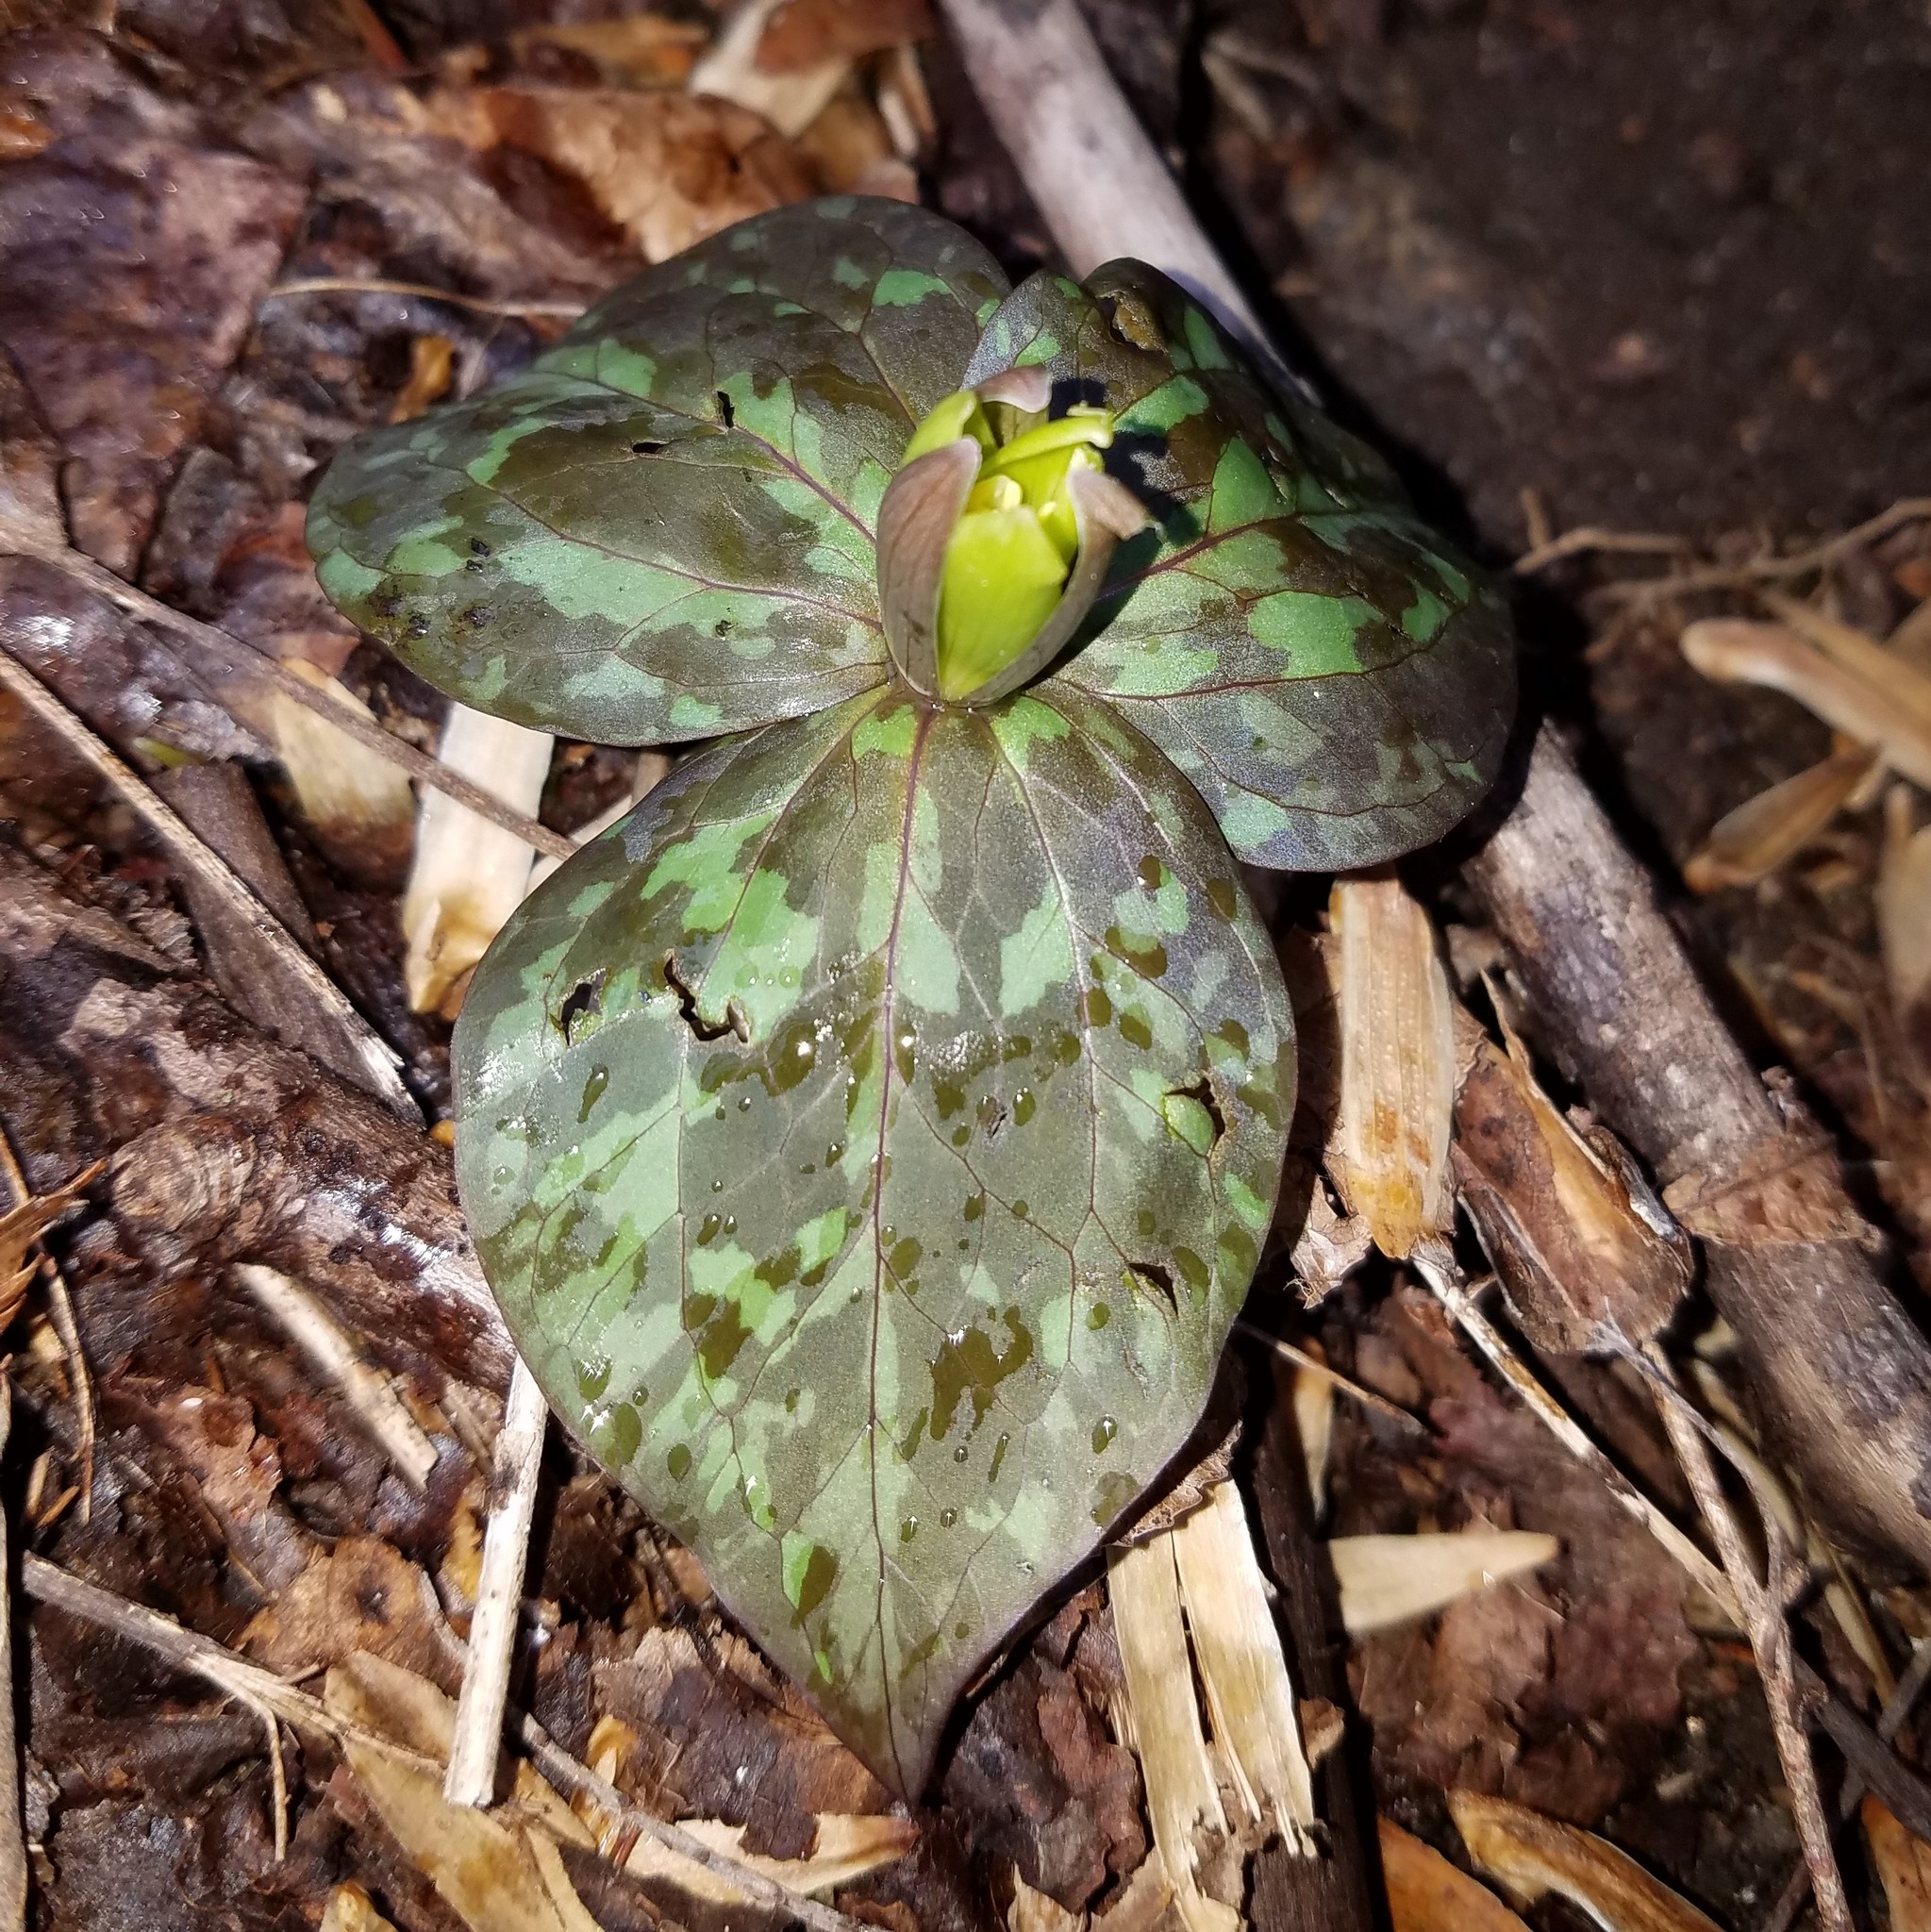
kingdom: Plantae
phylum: Tracheophyta
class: Liliopsida
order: Liliales
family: Melanthiaceae
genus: Trillium
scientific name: Trillium luteum
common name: Wax trillium
